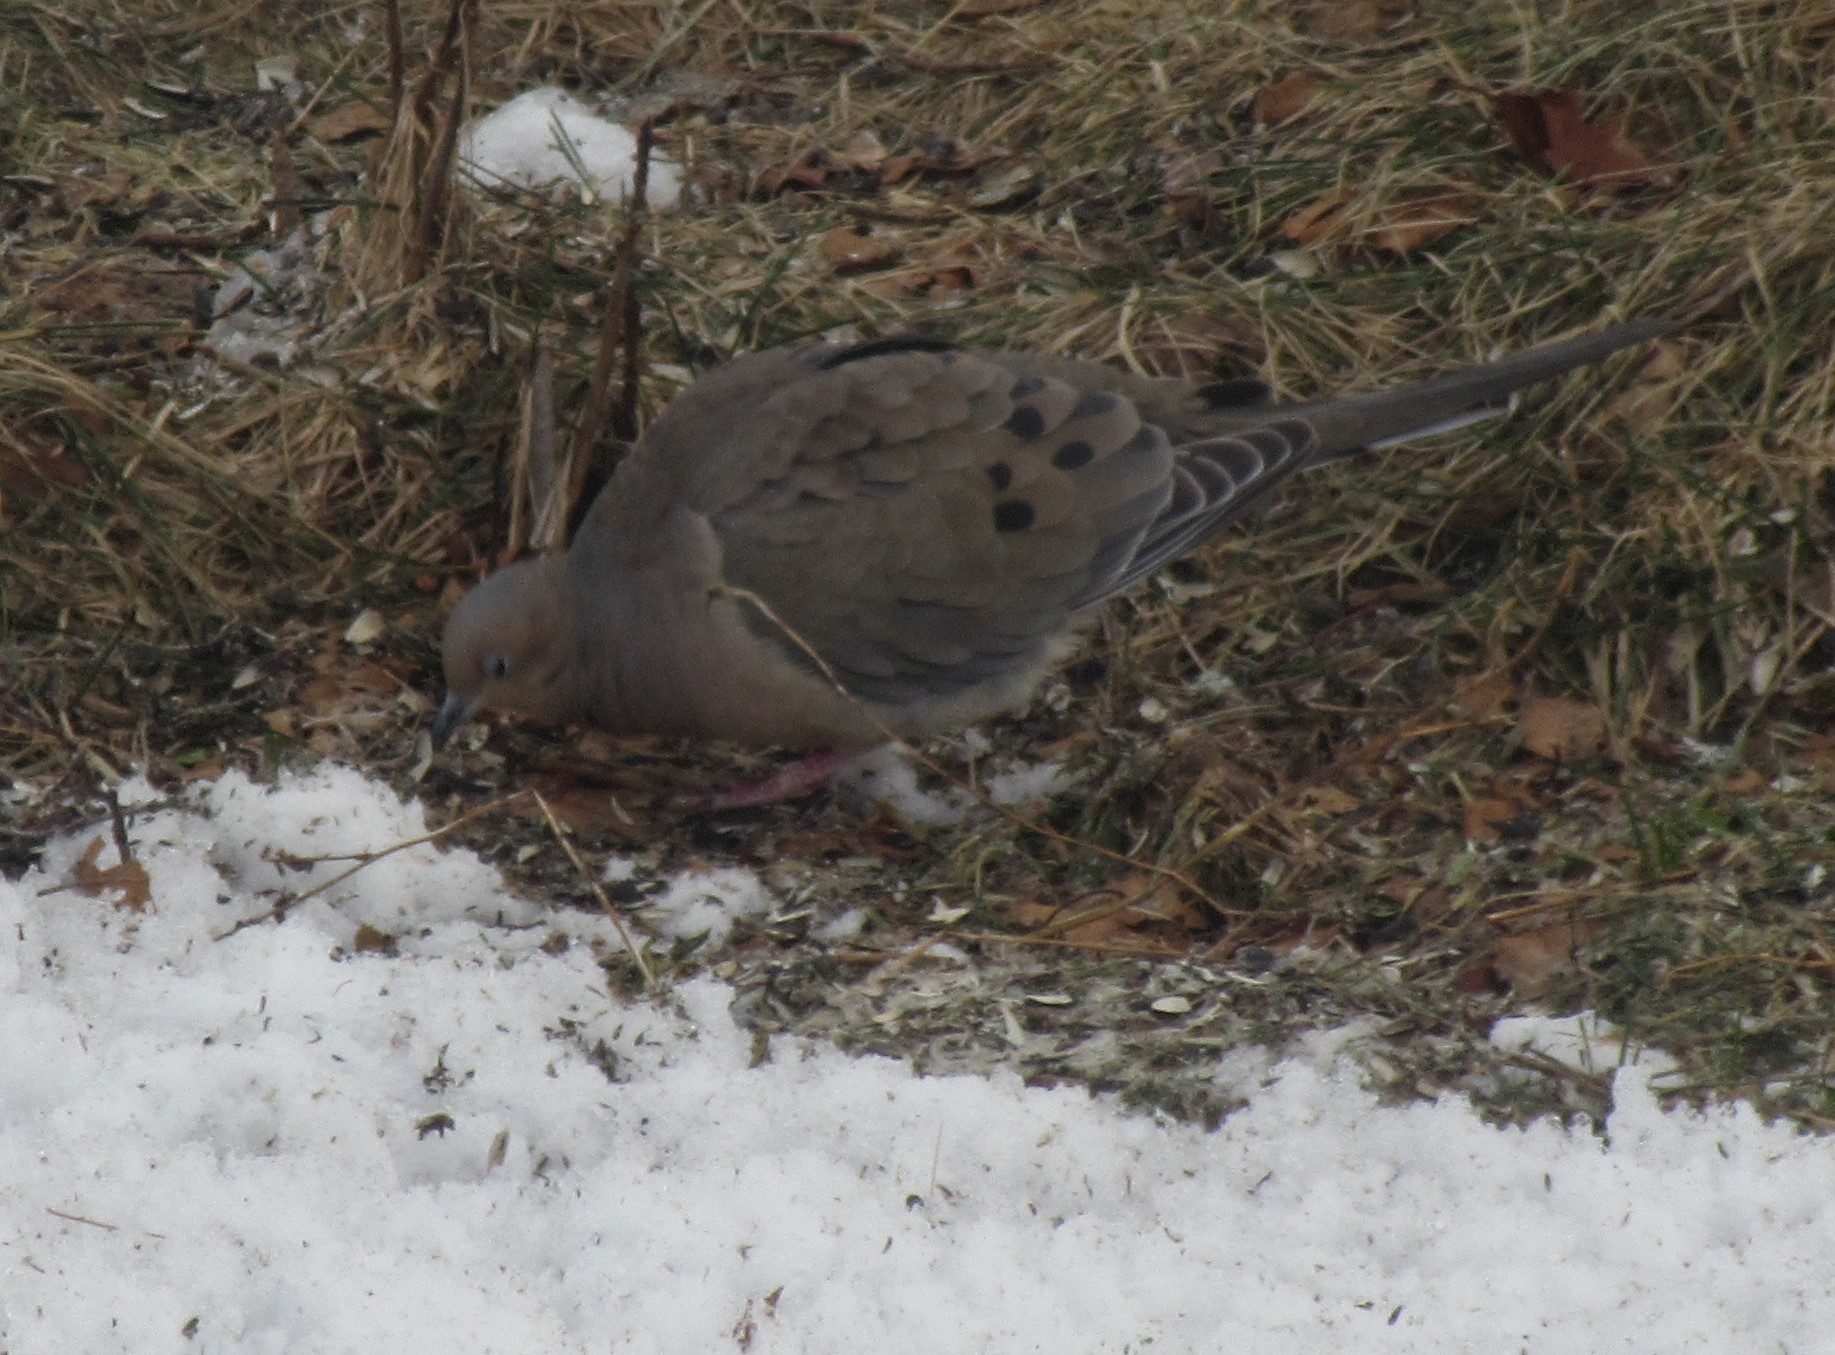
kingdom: Animalia
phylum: Chordata
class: Aves
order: Columbiformes
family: Columbidae
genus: Zenaida
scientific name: Zenaida macroura
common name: Mourning dove
